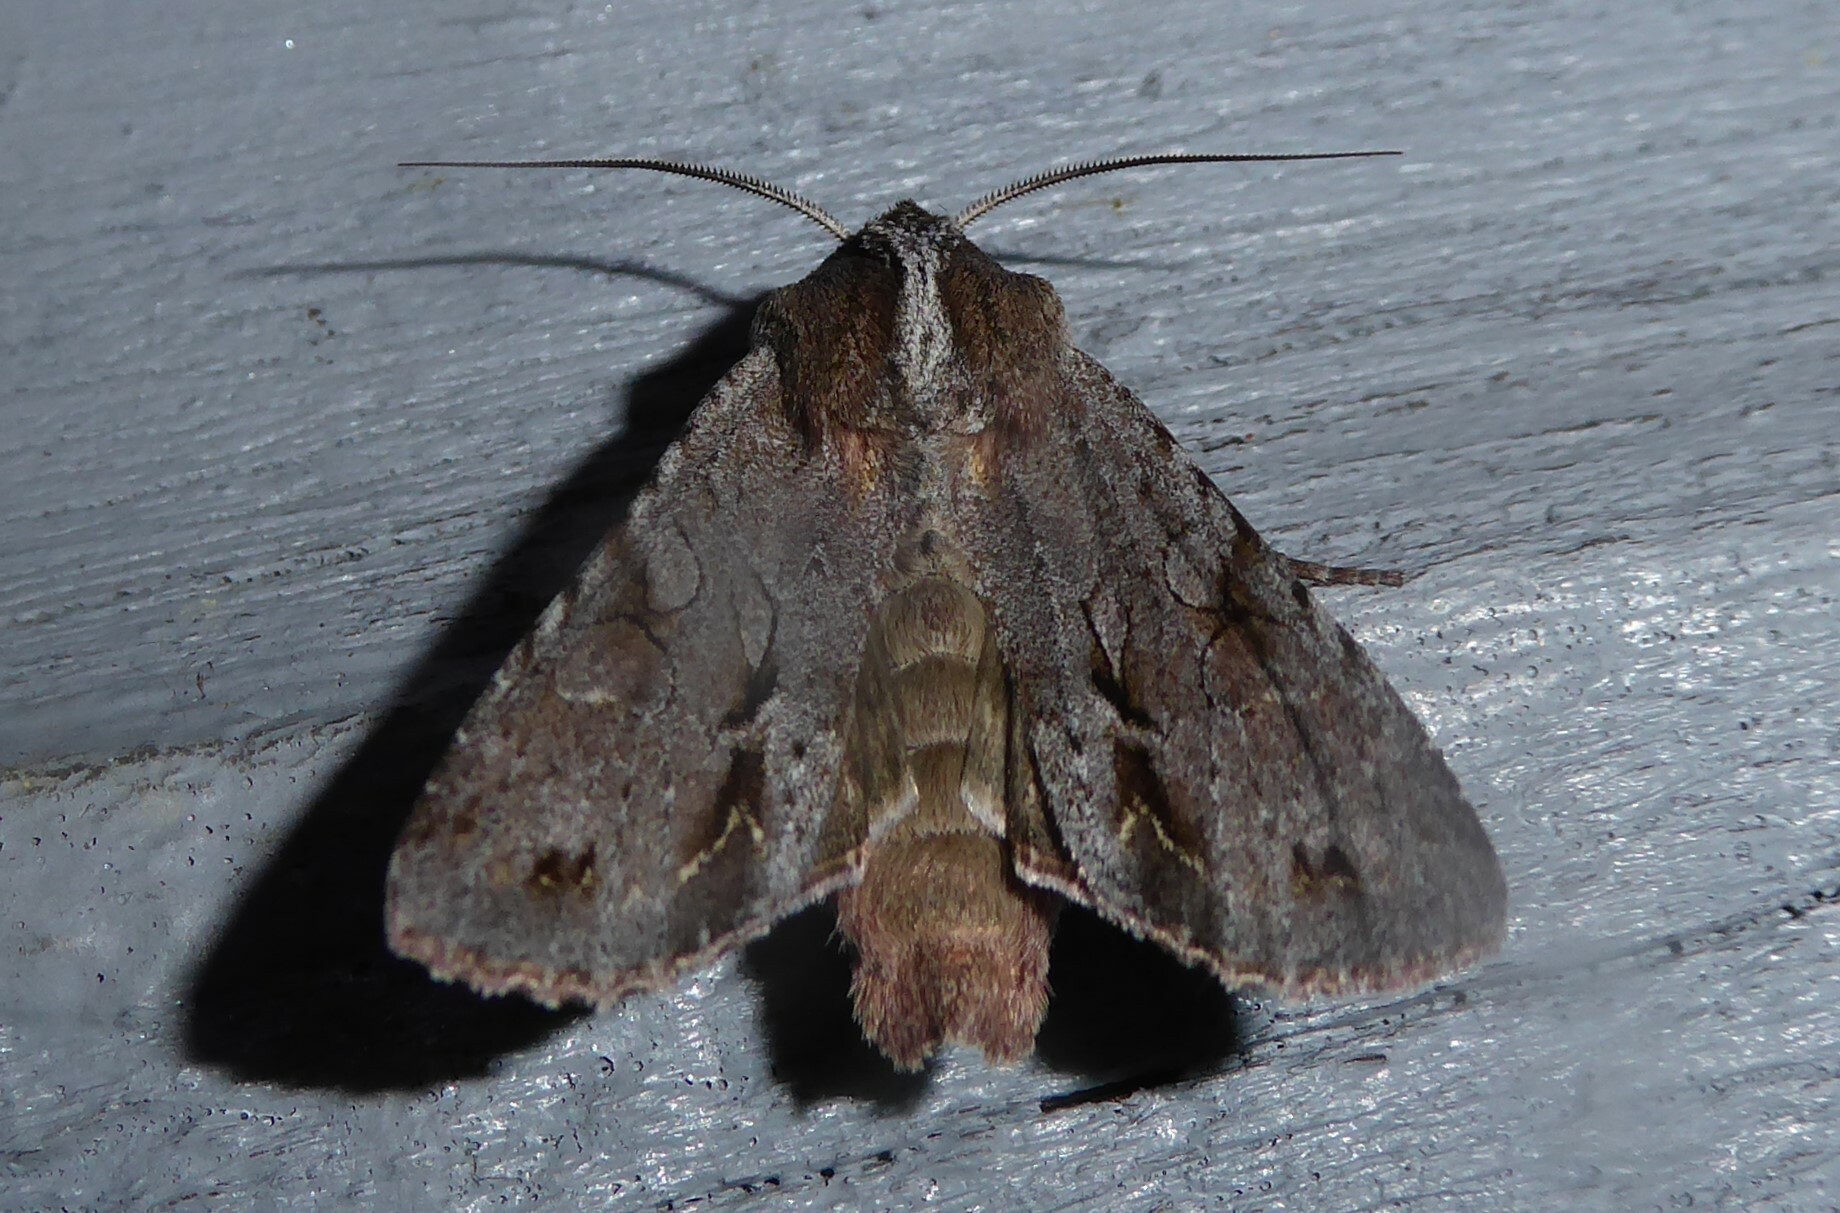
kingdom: Animalia
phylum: Arthropoda
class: Insecta
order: Lepidoptera
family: Noctuidae
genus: Ichneutica
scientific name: Ichneutica
